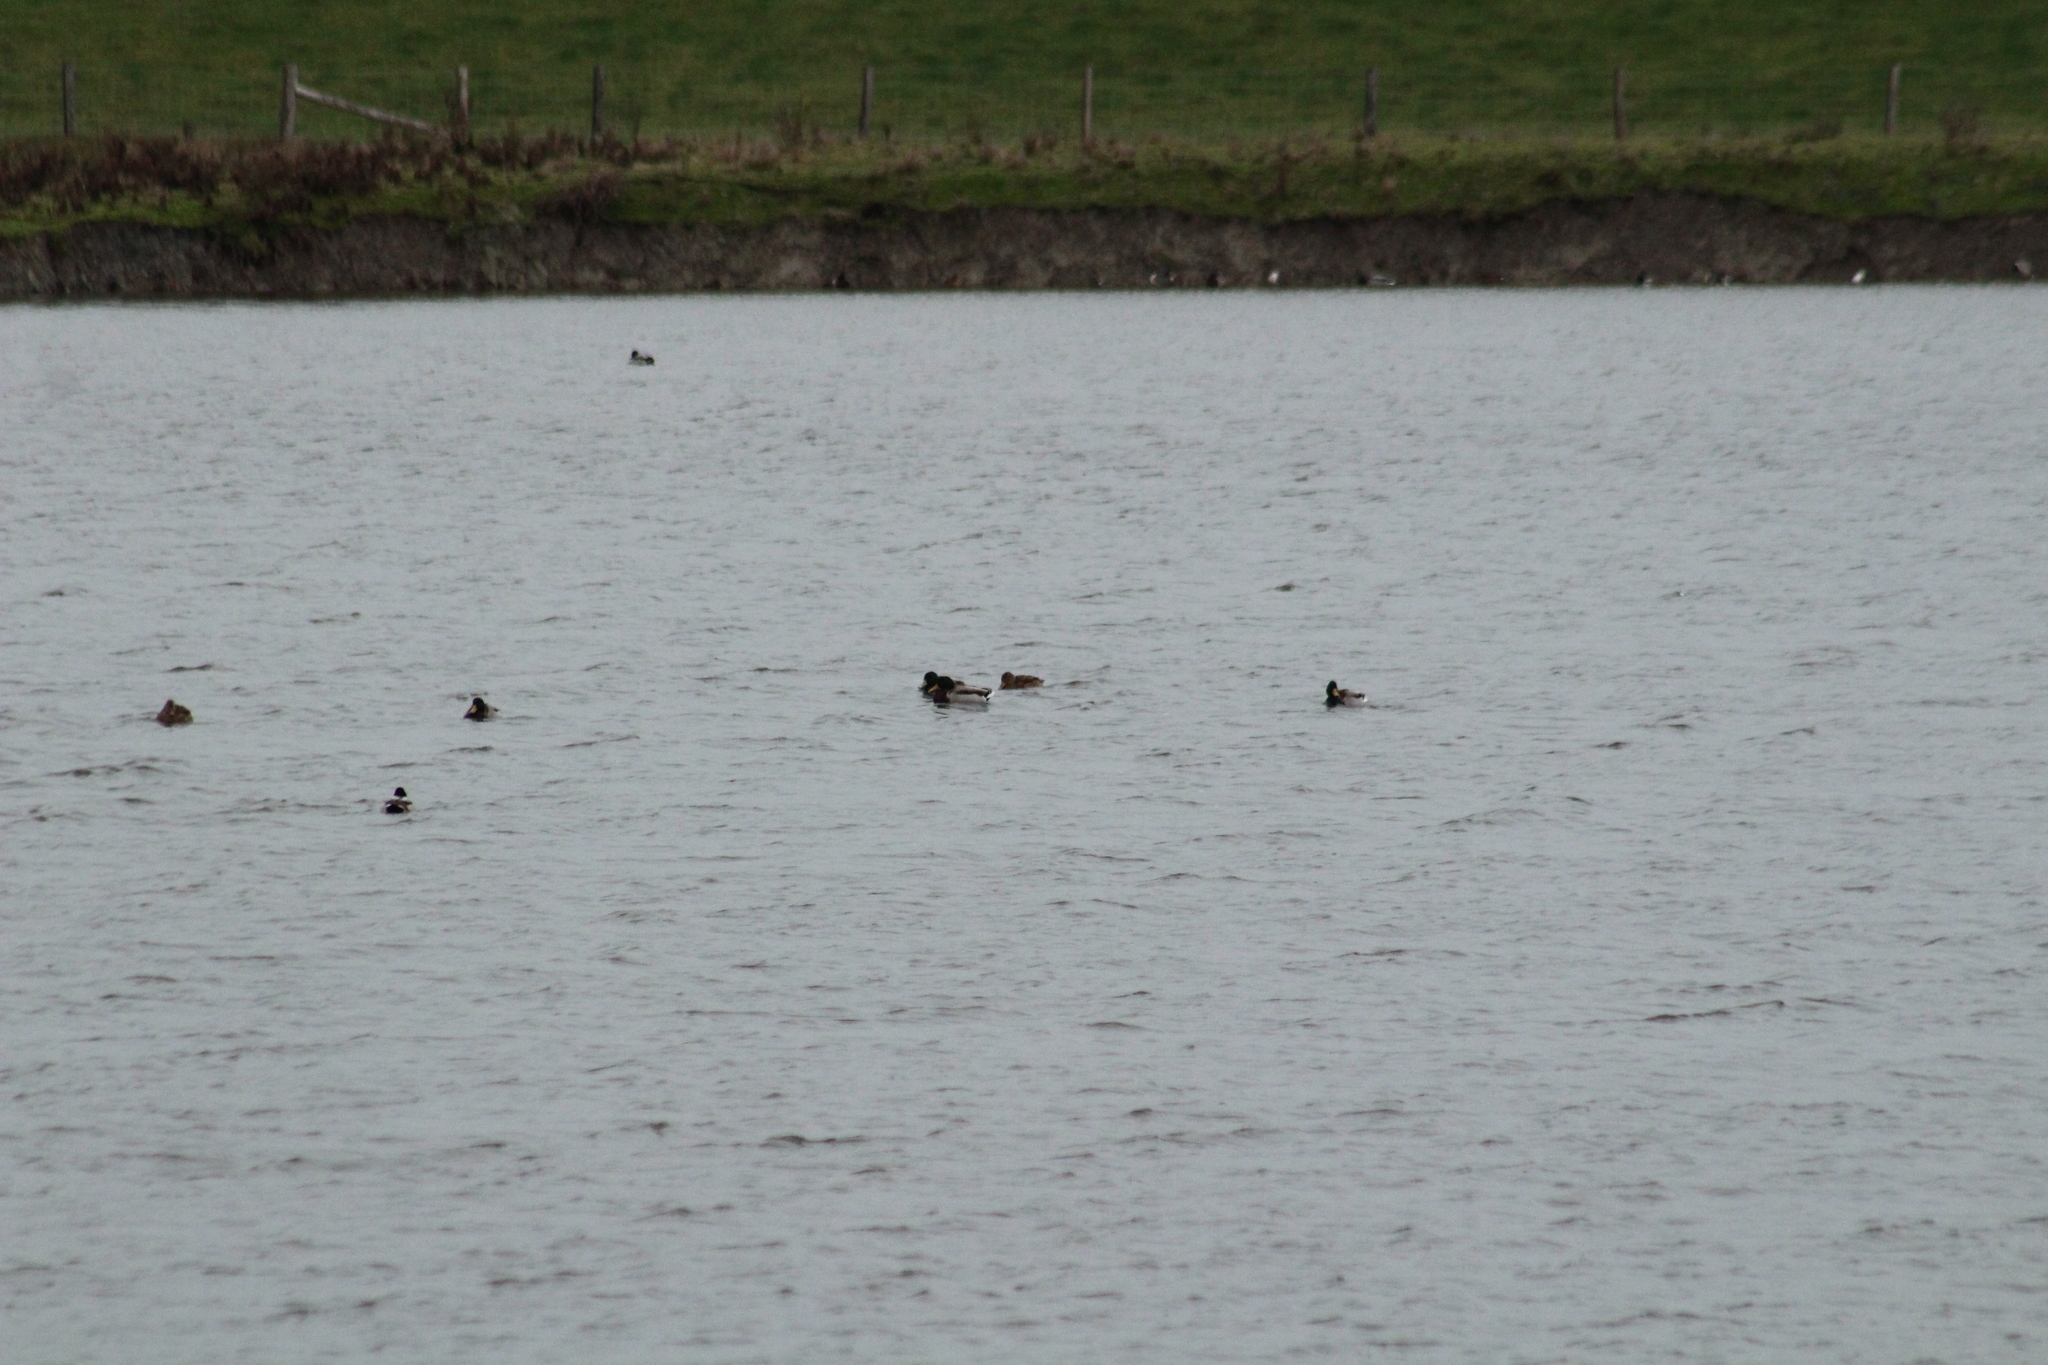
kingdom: Animalia
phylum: Chordata
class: Aves
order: Anseriformes
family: Anatidae
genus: Anas
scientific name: Anas platyrhynchos
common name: Mallard
